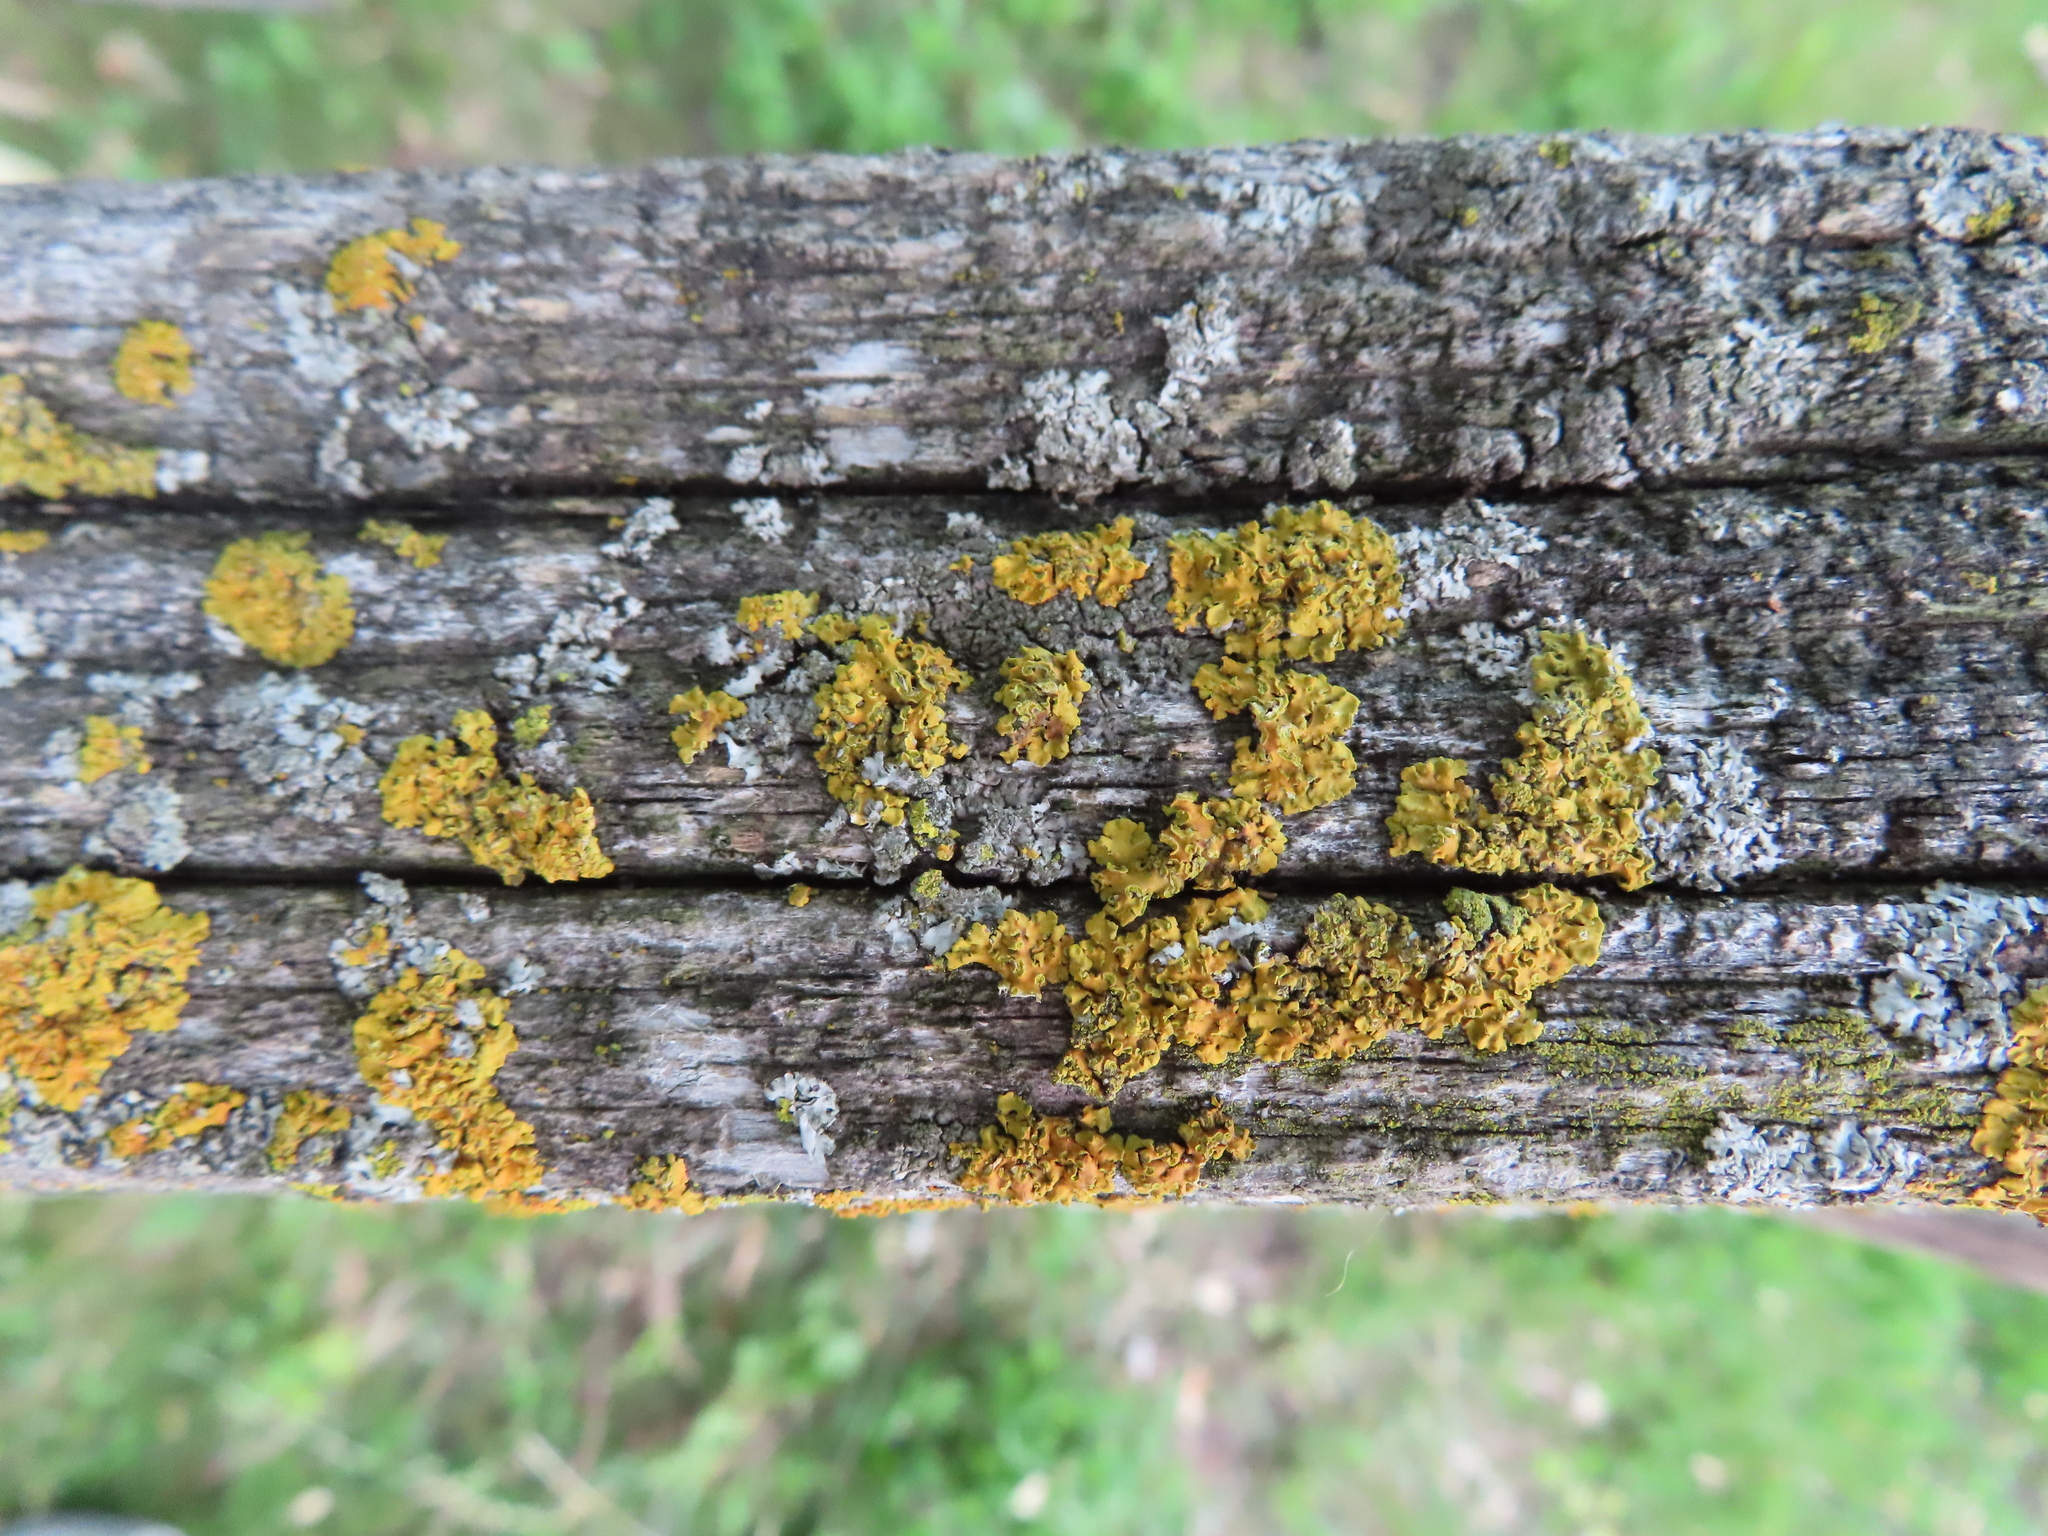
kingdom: Fungi
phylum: Ascomycota
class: Lecanoromycetes
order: Teloschistales
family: Teloschistaceae
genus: Oxneria
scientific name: Oxneria fallax
